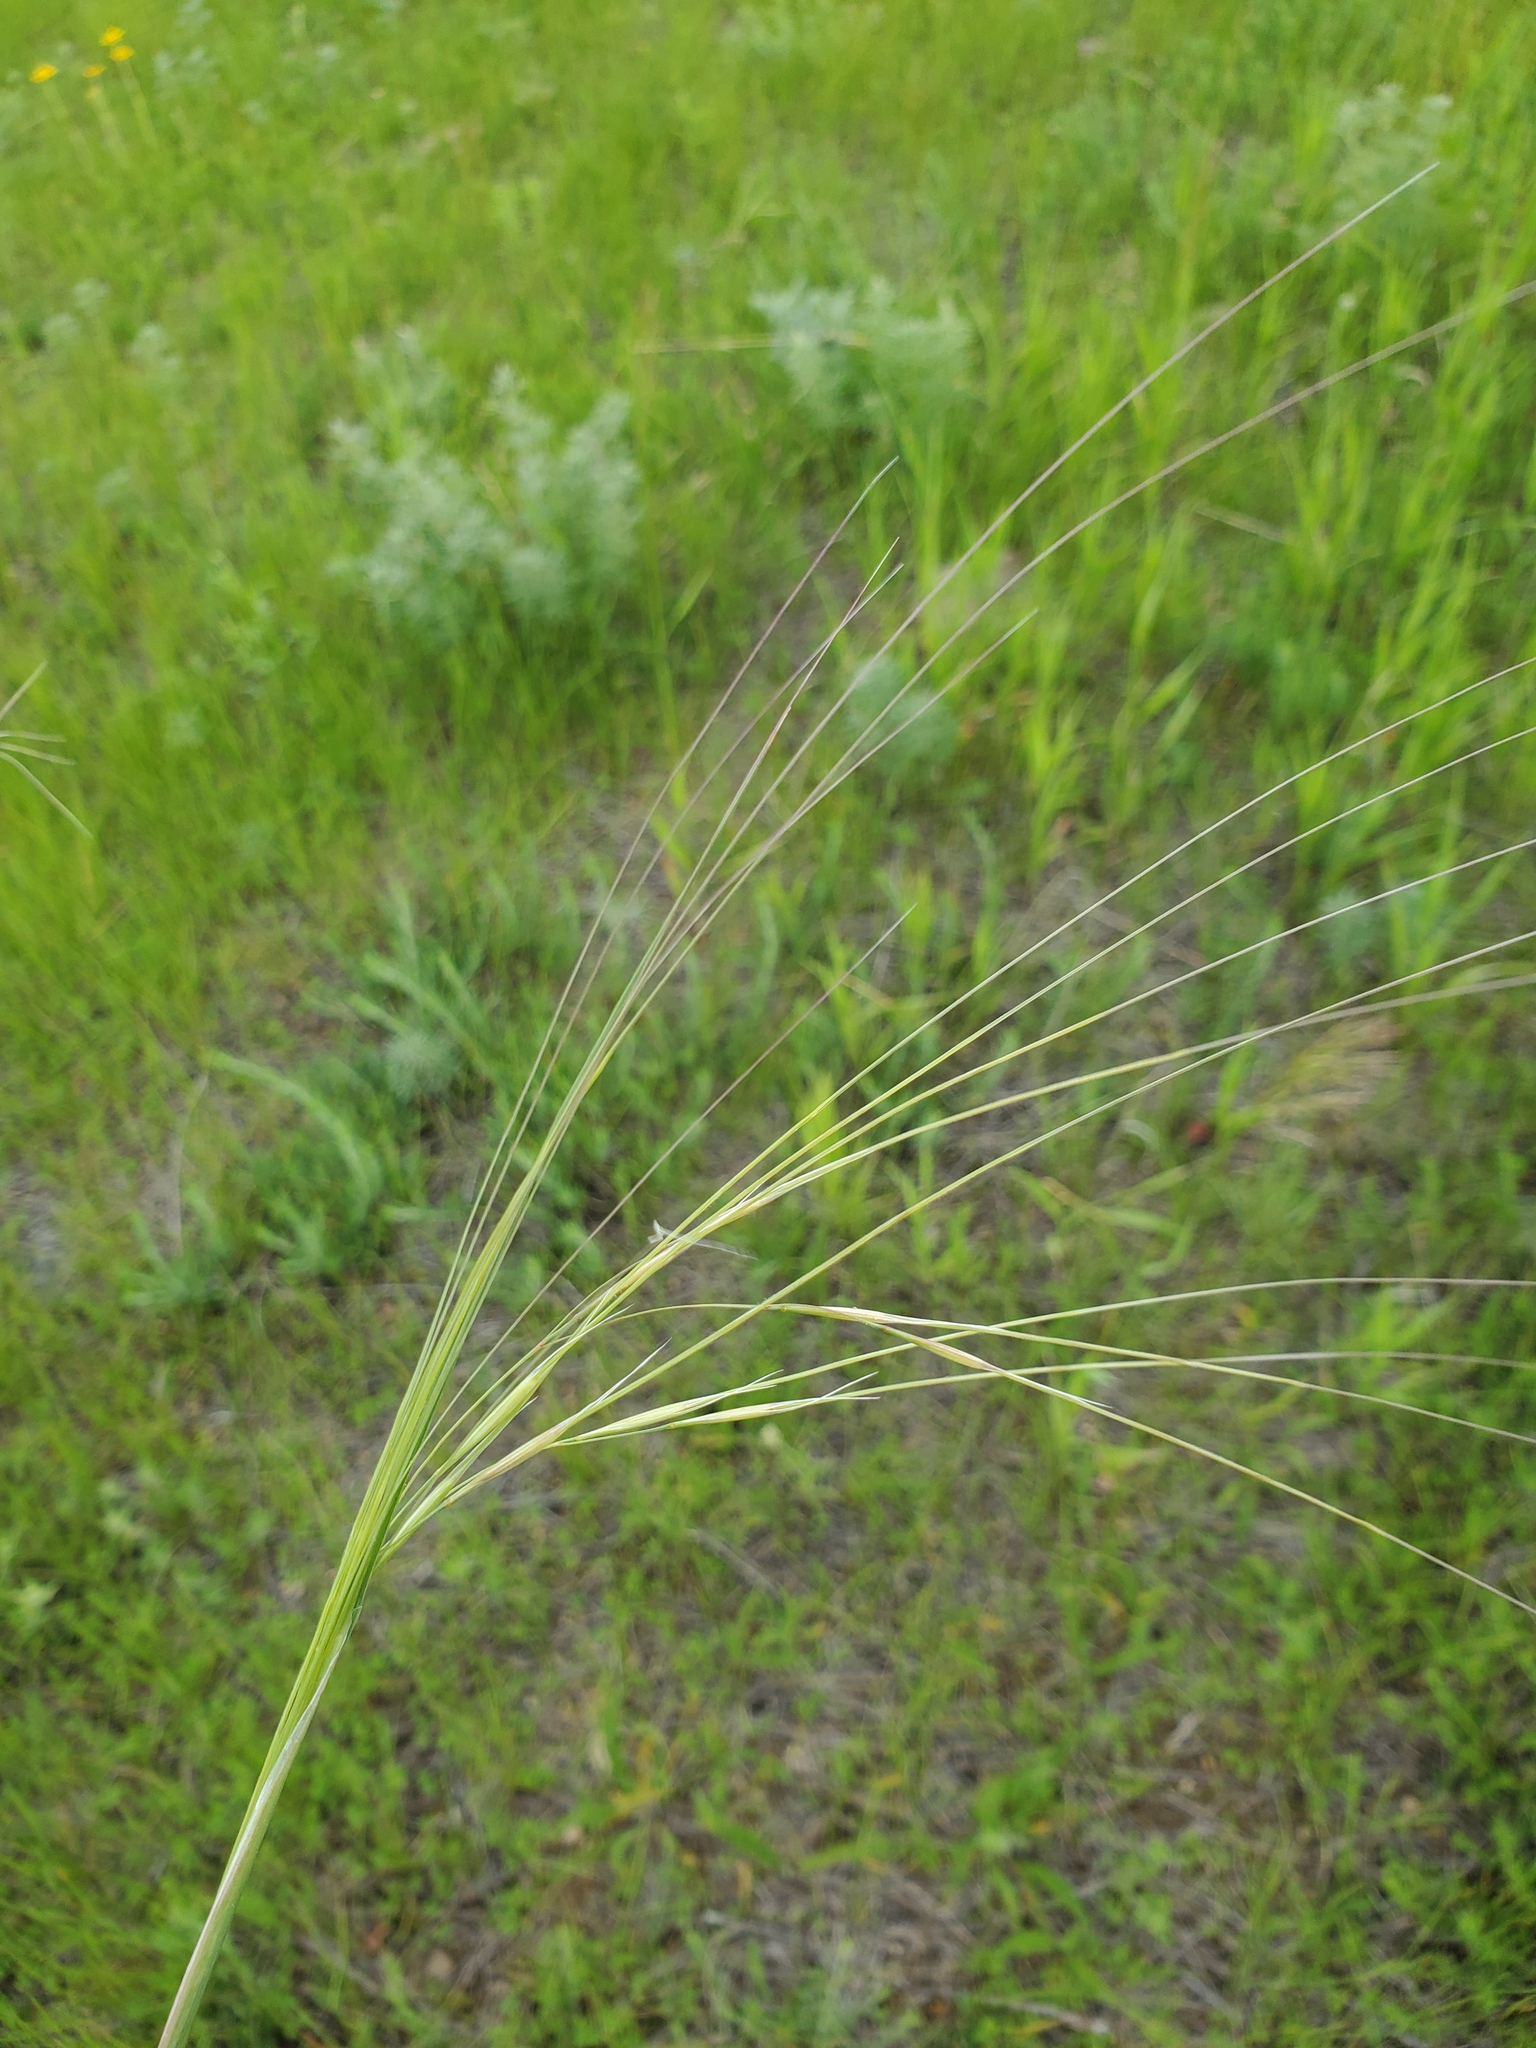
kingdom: Plantae
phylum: Tracheophyta
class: Liliopsida
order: Poales
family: Poaceae
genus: Hesperostipa
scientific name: Hesperostipa comata
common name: Needle-and-thread grass
